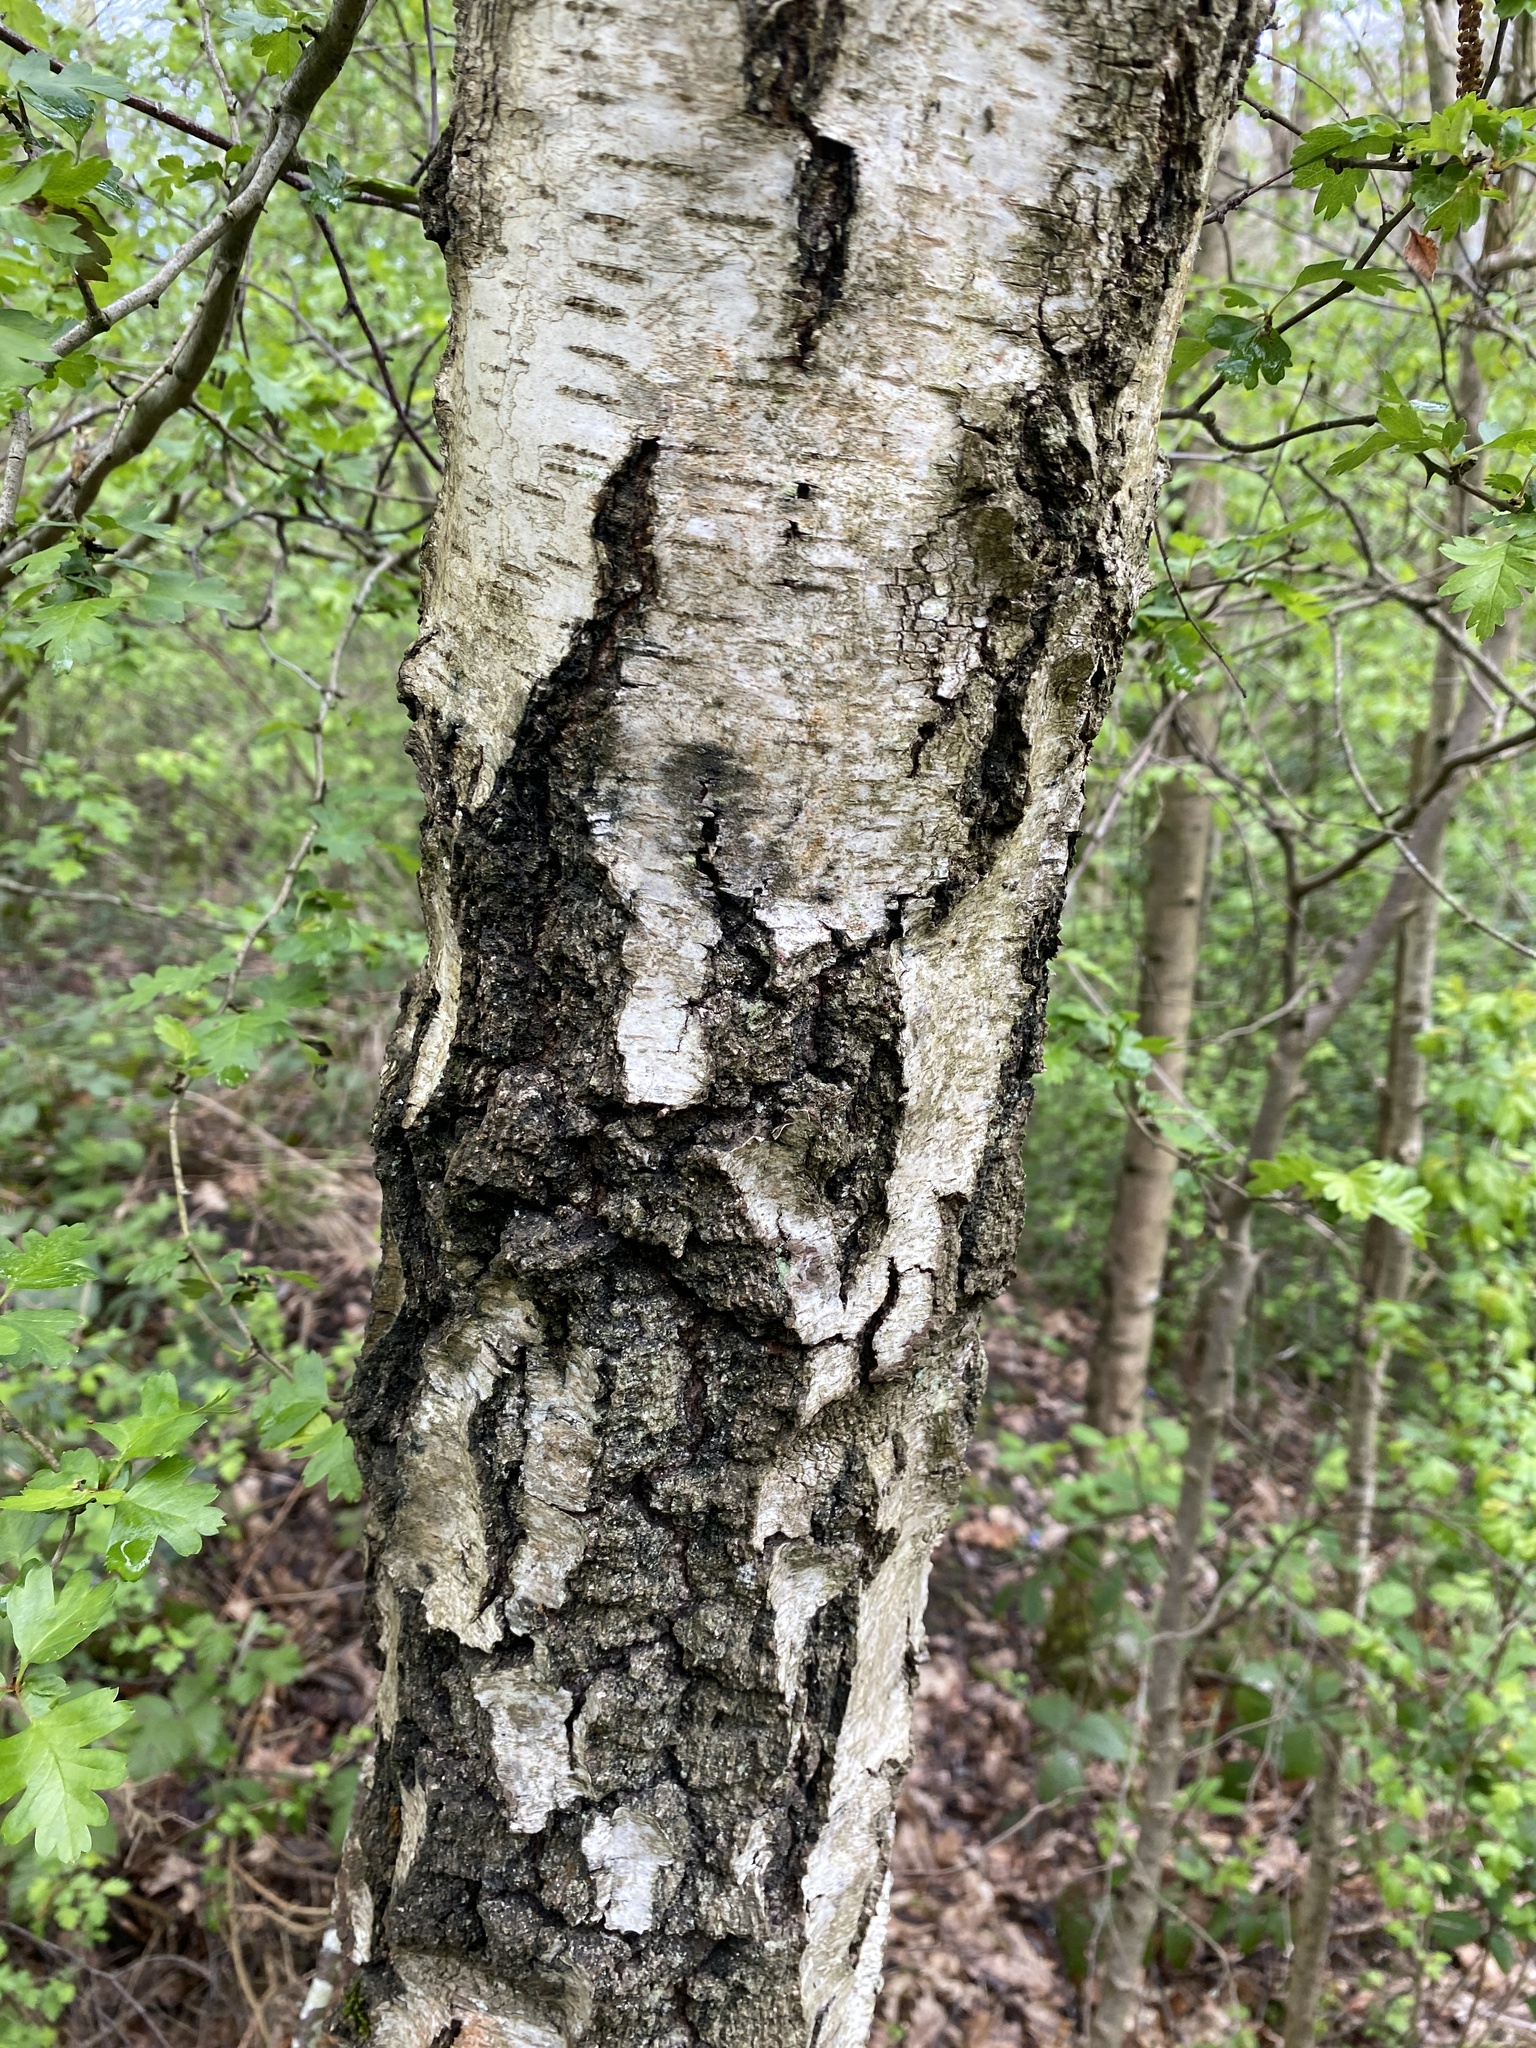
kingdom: Plantae
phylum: Tracheophyta
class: Magnoliopsida
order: Fagales
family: Betulaceae
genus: Betula
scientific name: Betula pendula
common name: Silver birch
